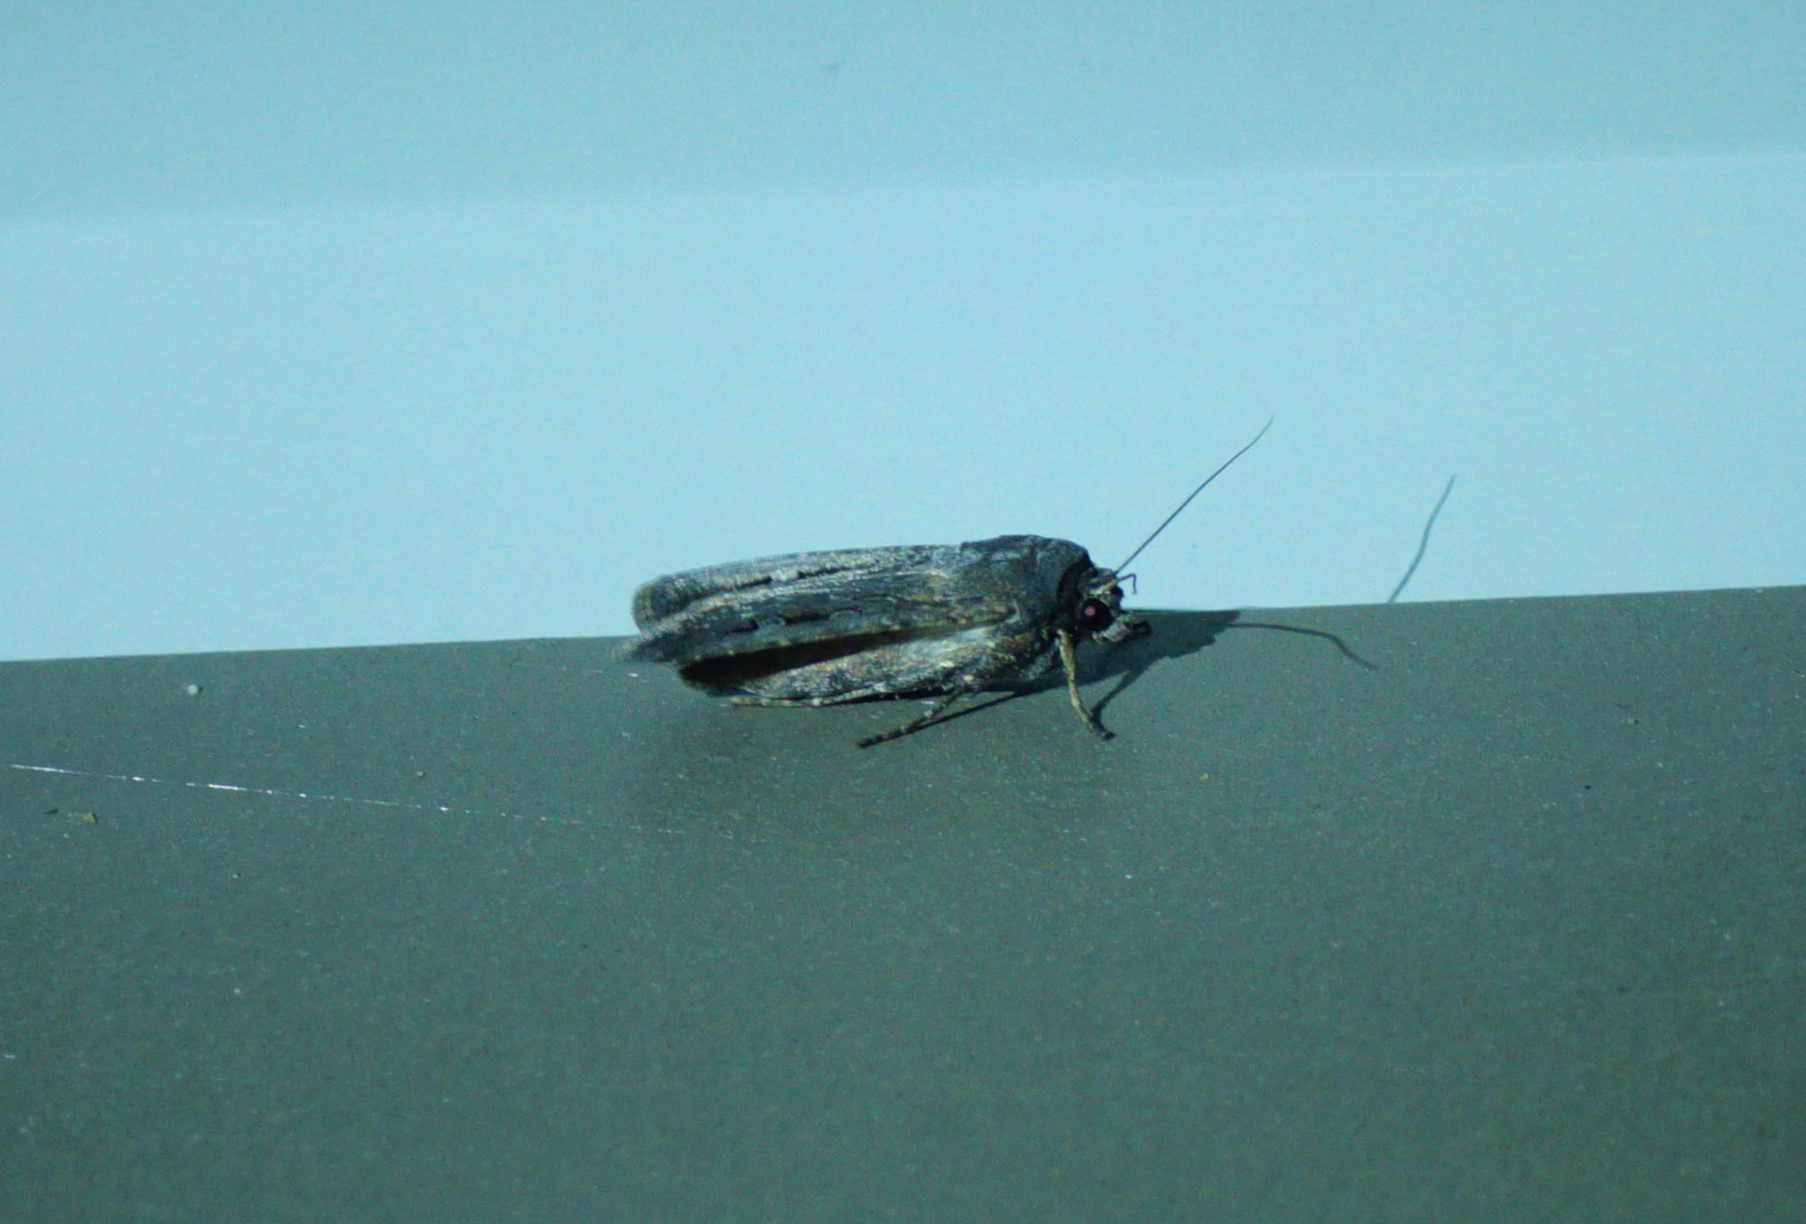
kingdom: Animalia
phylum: Arthropoda
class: Insecta
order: Lepidoptera
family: Noctuidae
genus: Agrotis
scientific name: Agrotis infusa
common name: Bogong moth
